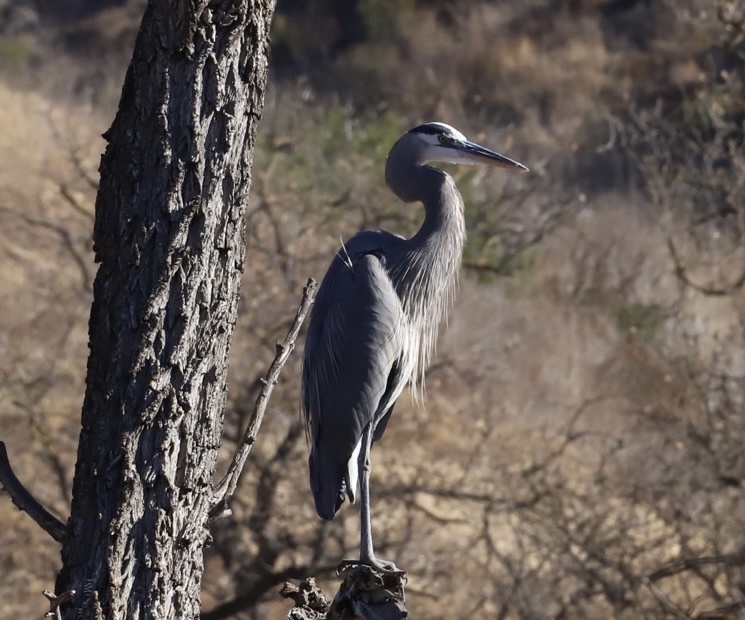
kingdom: Animalia
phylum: Chordata
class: Aves
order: Pelecaniformes
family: Ardeidae
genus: Ardea
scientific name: Ardea herodias
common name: Great blue heron
